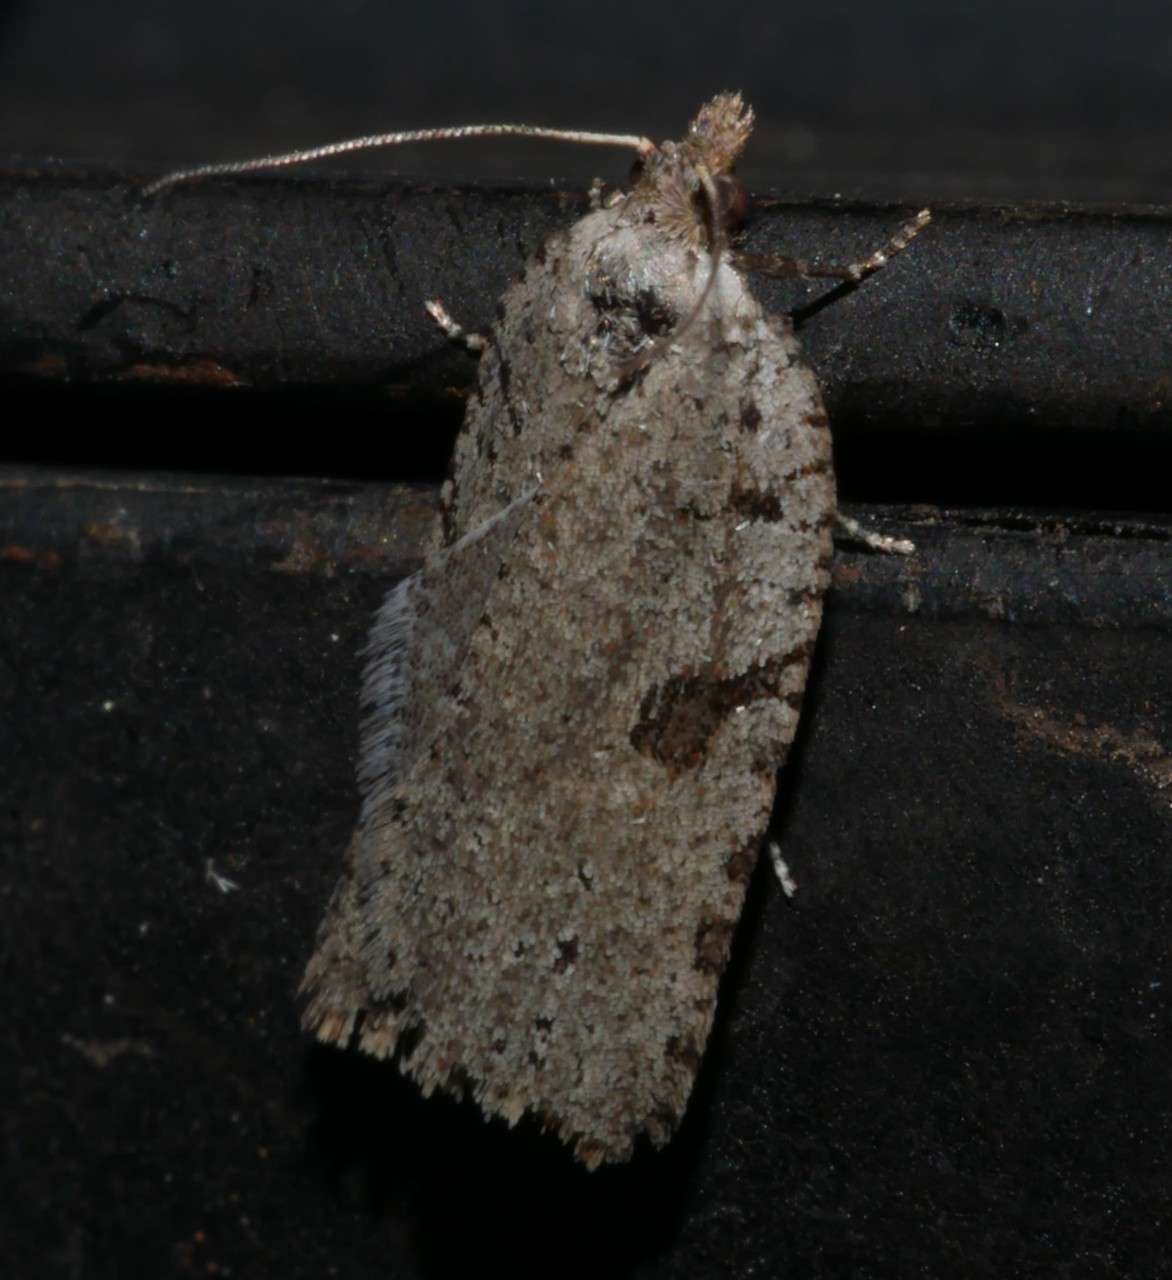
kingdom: Animalia
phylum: Arthropoda
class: Insecta
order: Lepidoptera
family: Tortricidae
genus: Meritastis
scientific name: Meritastis polygraphana
